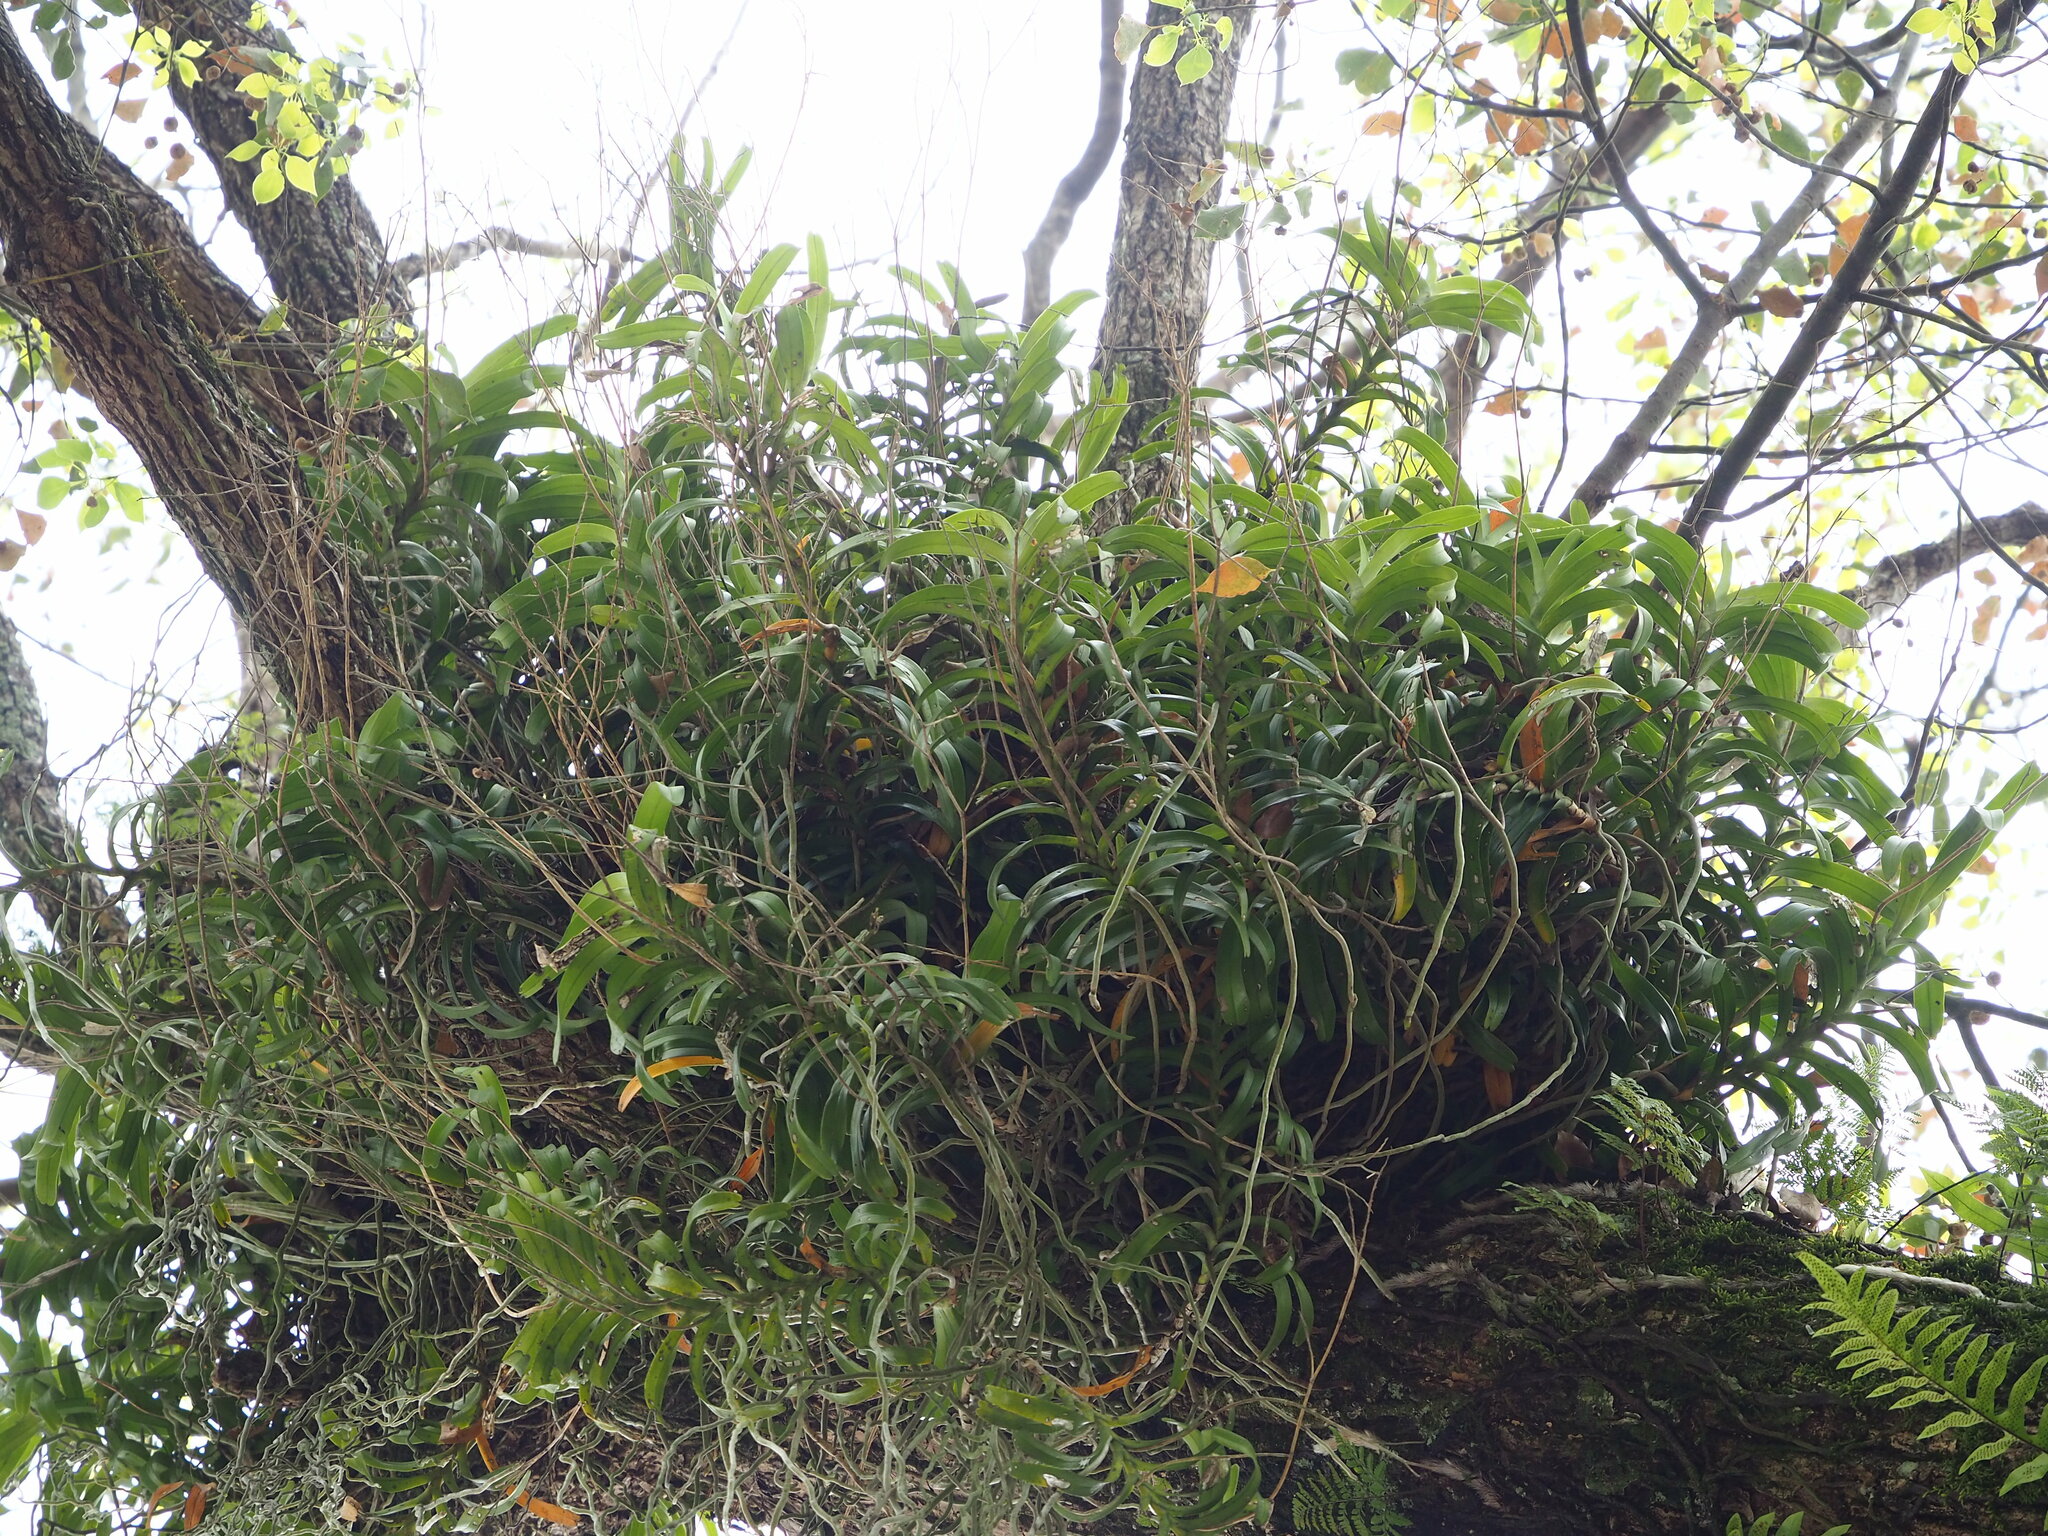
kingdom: Plantae
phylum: Tracheophyta
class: Liliopsida
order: Asparagales
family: Orchidaceae
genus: Cleisostoma
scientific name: Cleisostoma paniculatum
